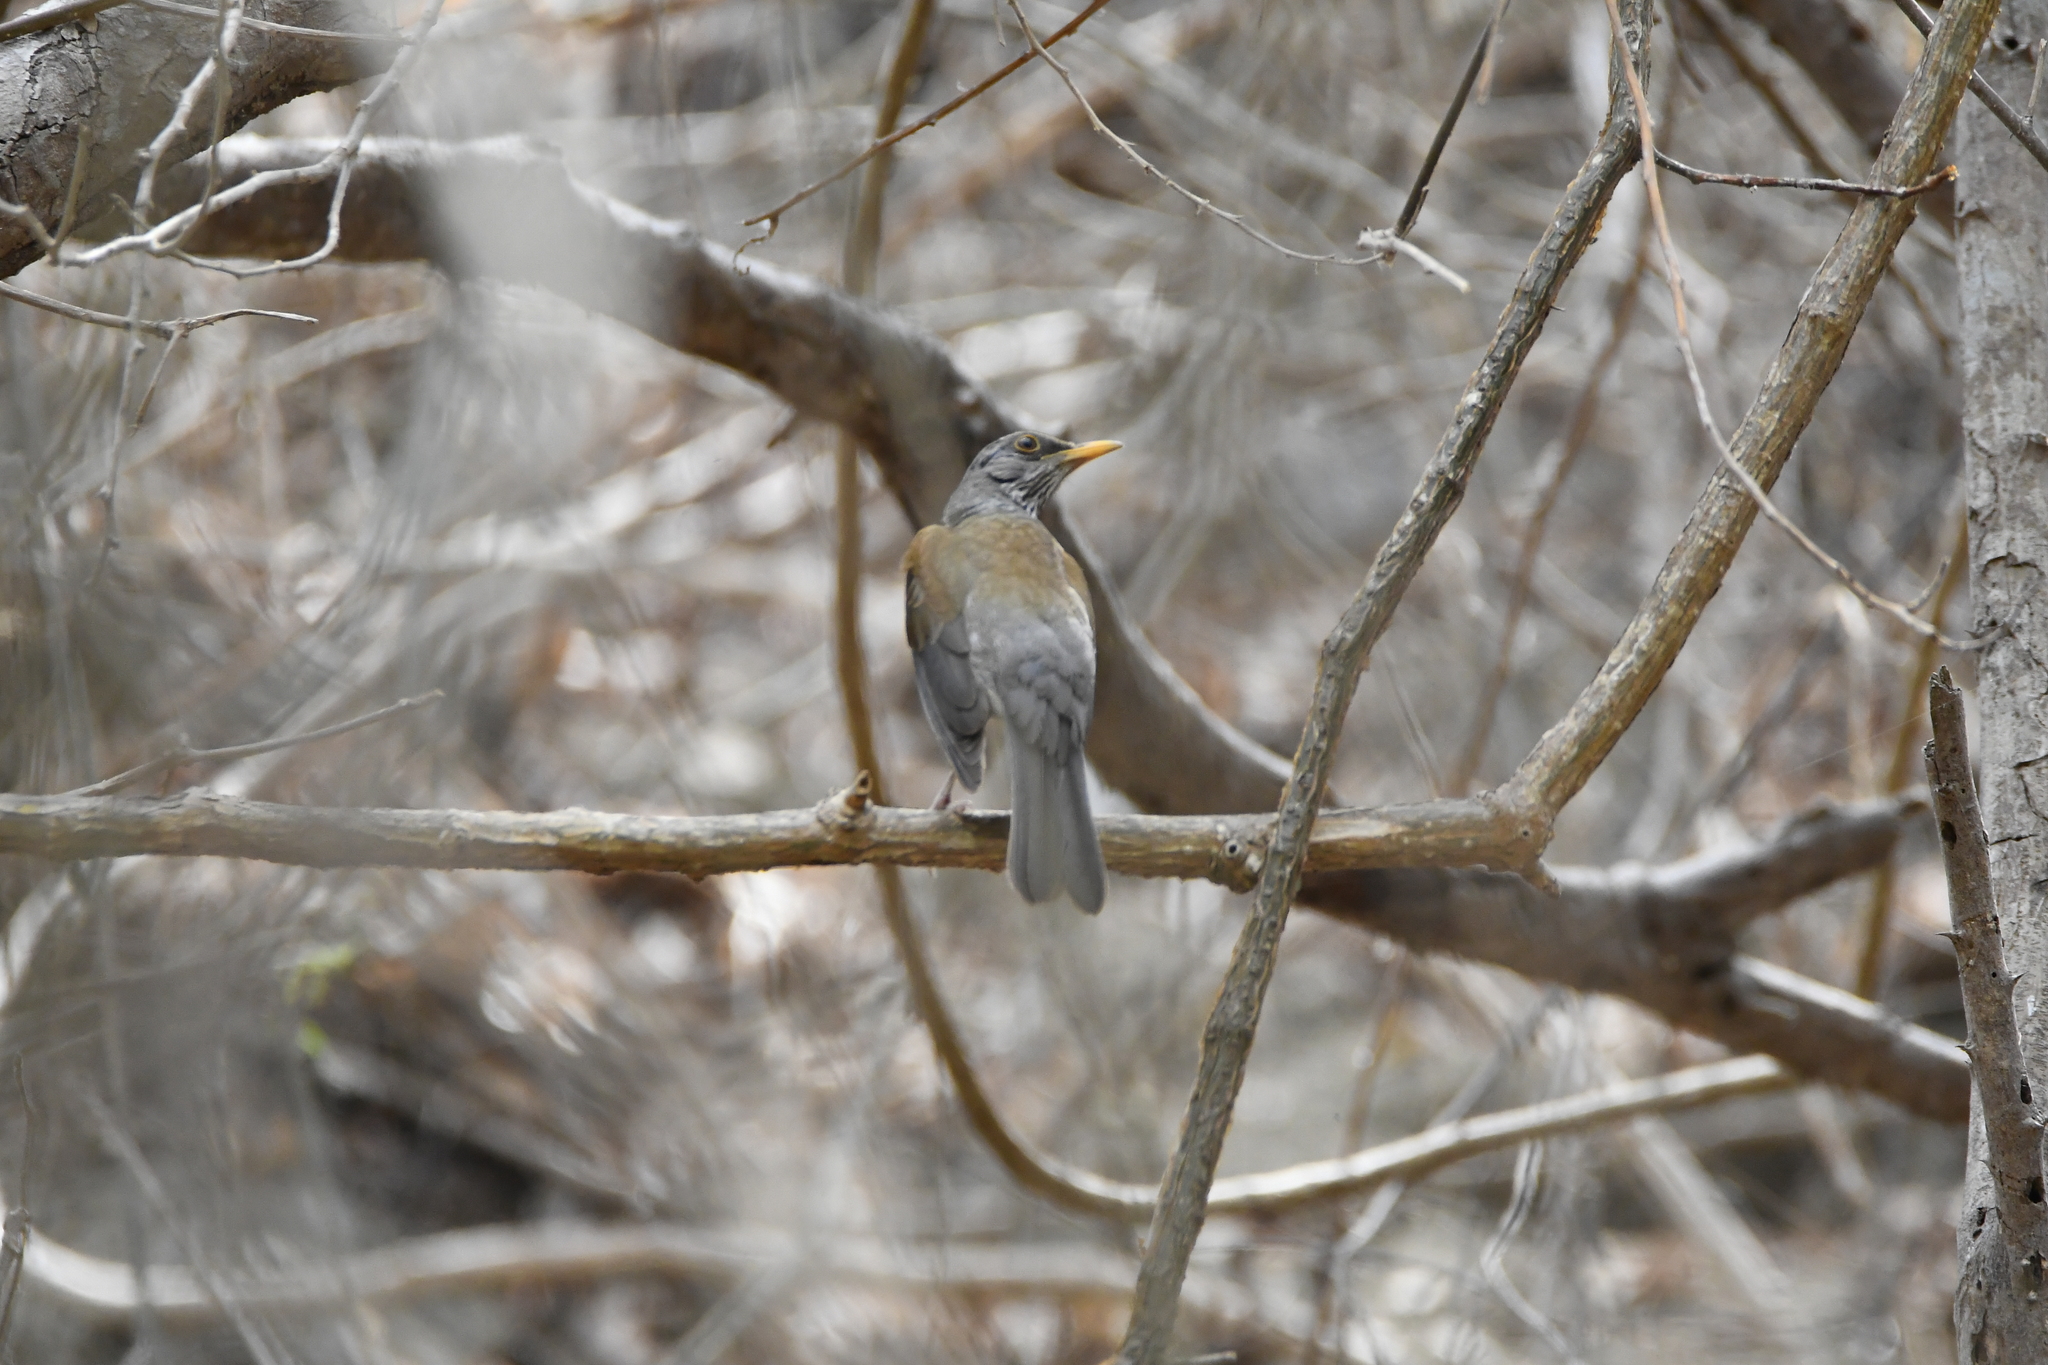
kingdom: Animalia
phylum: Chordata
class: Aves
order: Passeriformes
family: Turdidae
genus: Turdus
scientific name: Turdus rufopalliatus
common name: Rufous-backed robin
